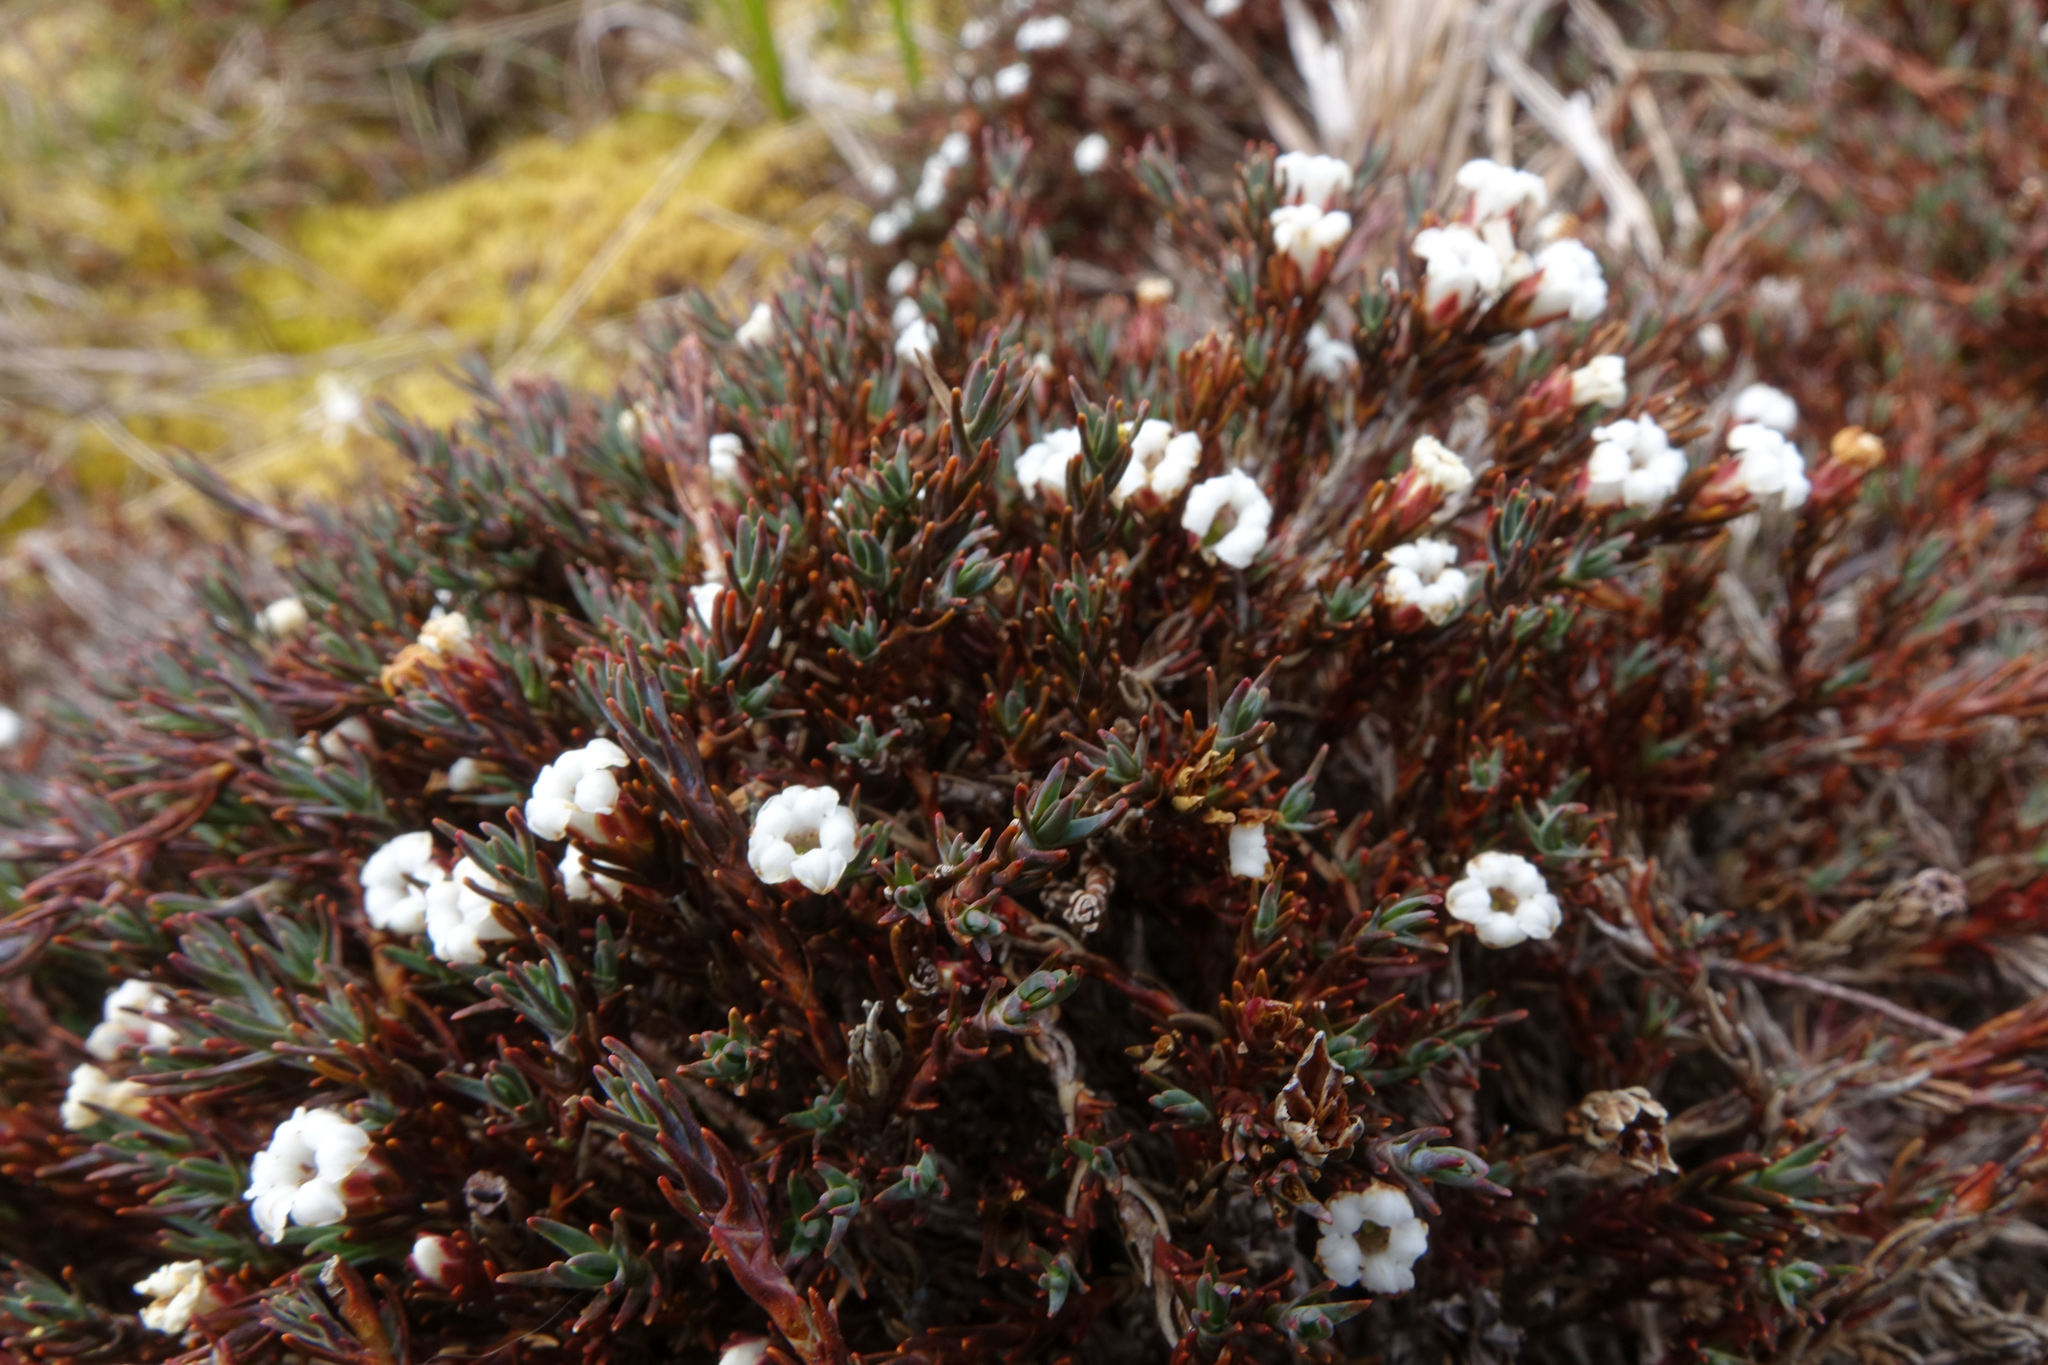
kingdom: Plantae
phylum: Tracheophyta
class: Magnoliopsida
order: Ericales
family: Ericaceae
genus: Dracophyllum
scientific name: Dracophyllum prostratum
